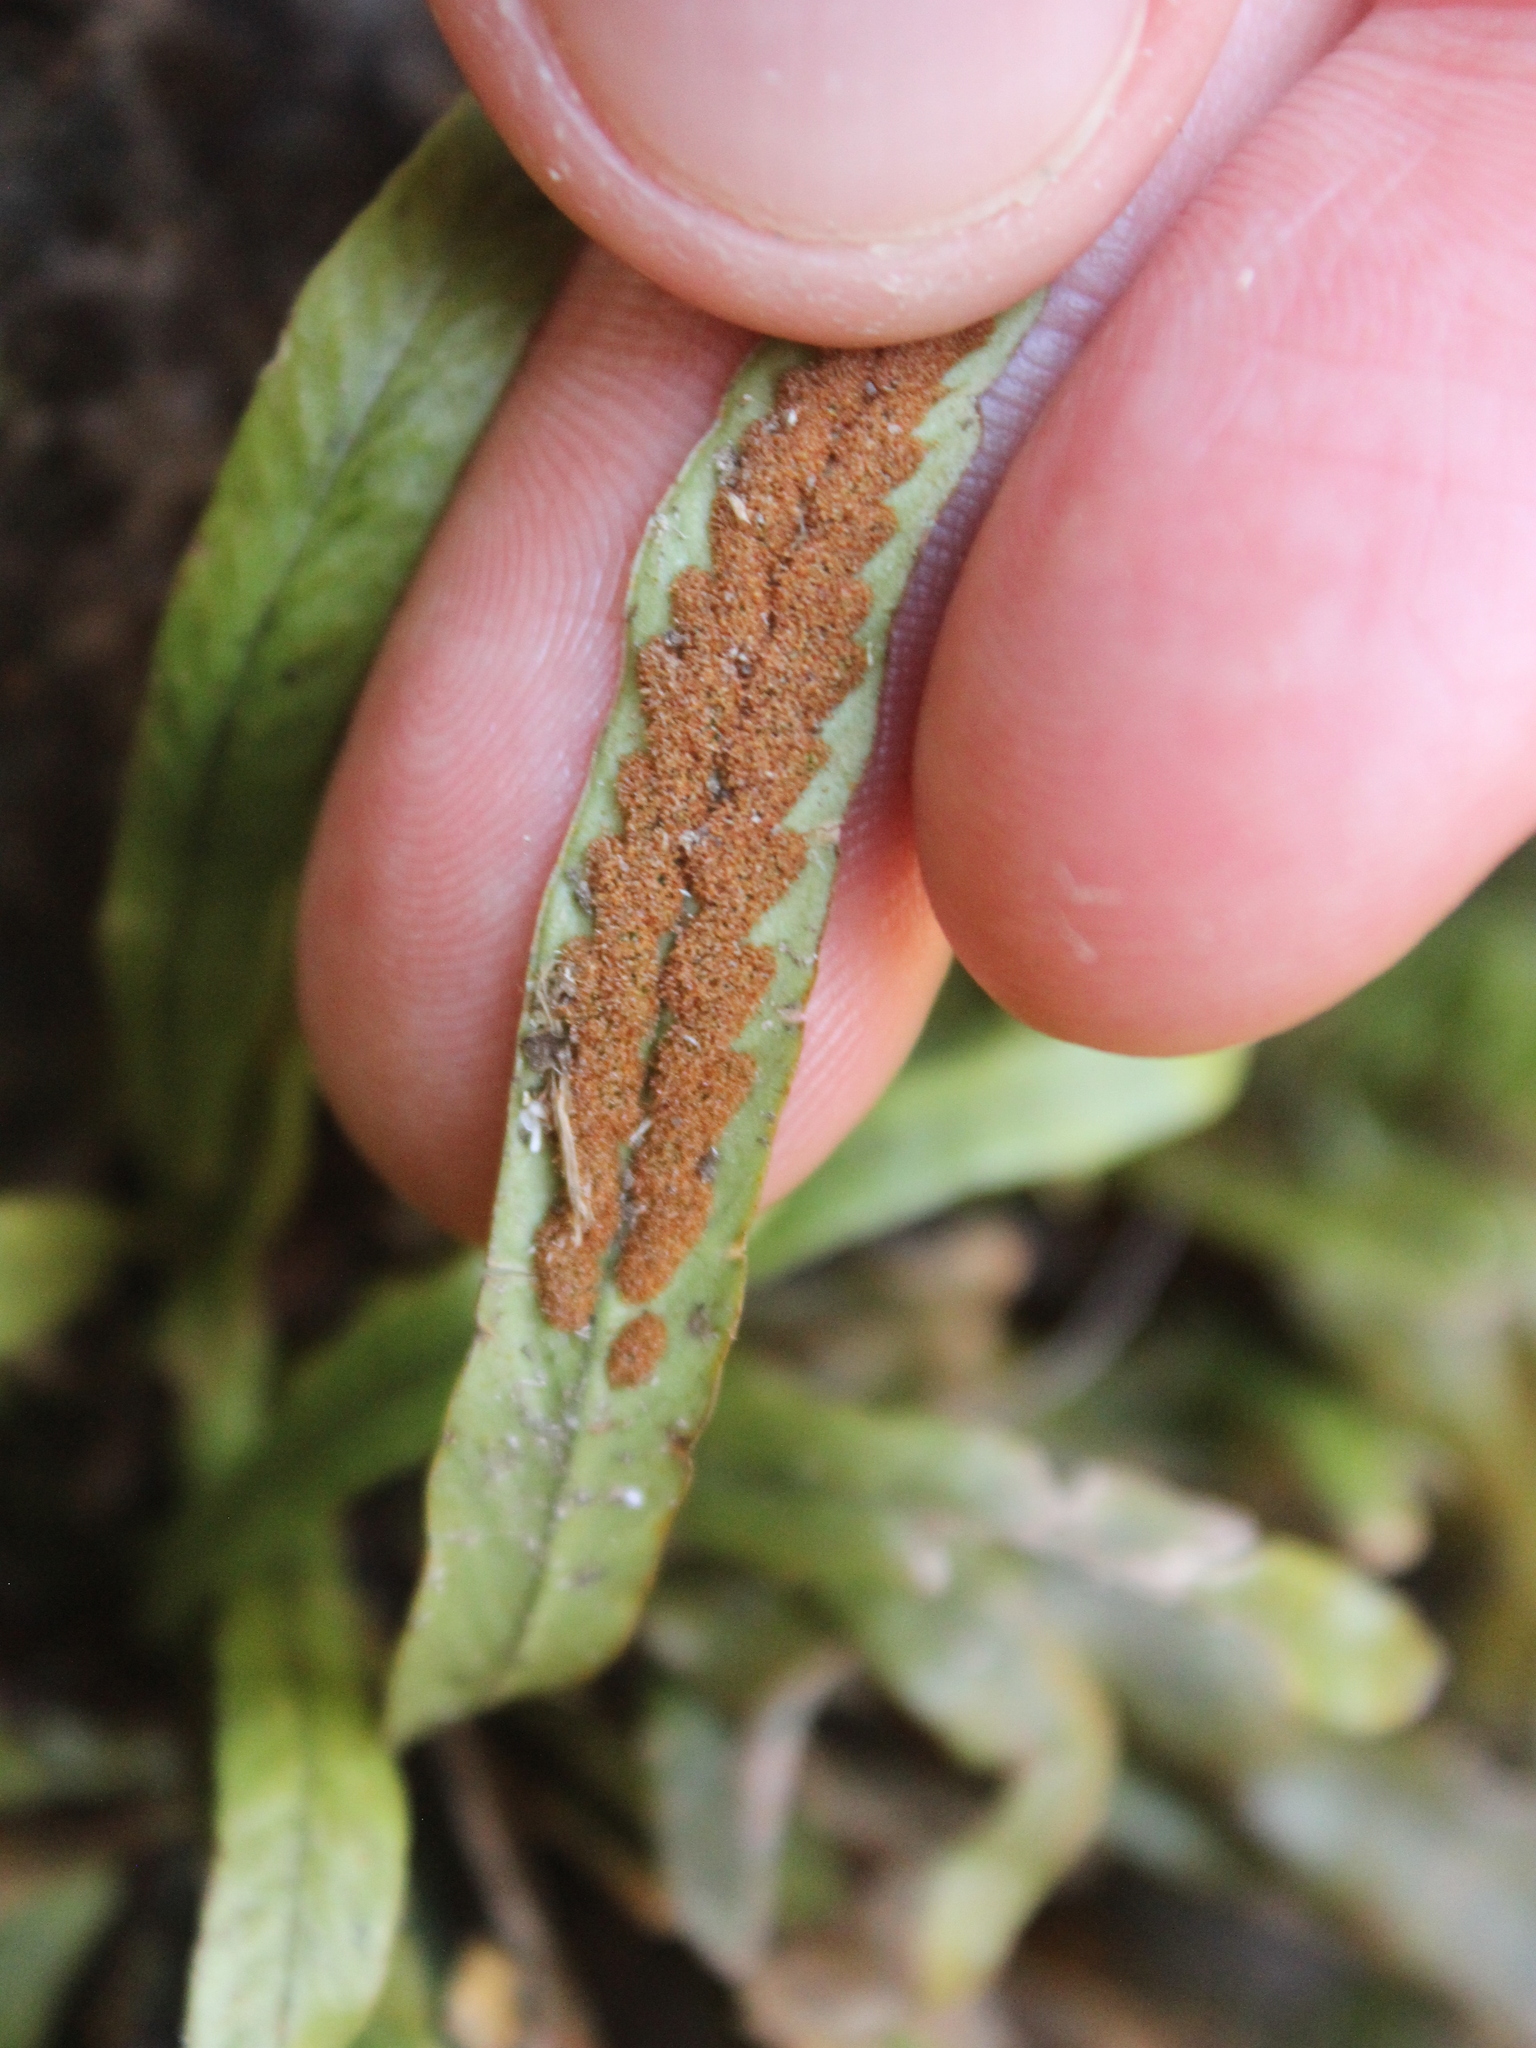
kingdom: Plantae
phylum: Tracheophyta
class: Polypodiopsida
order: Polypodiales
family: Polypodiaceae
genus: Notogrammitis
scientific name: Notogrammitis billardierei
